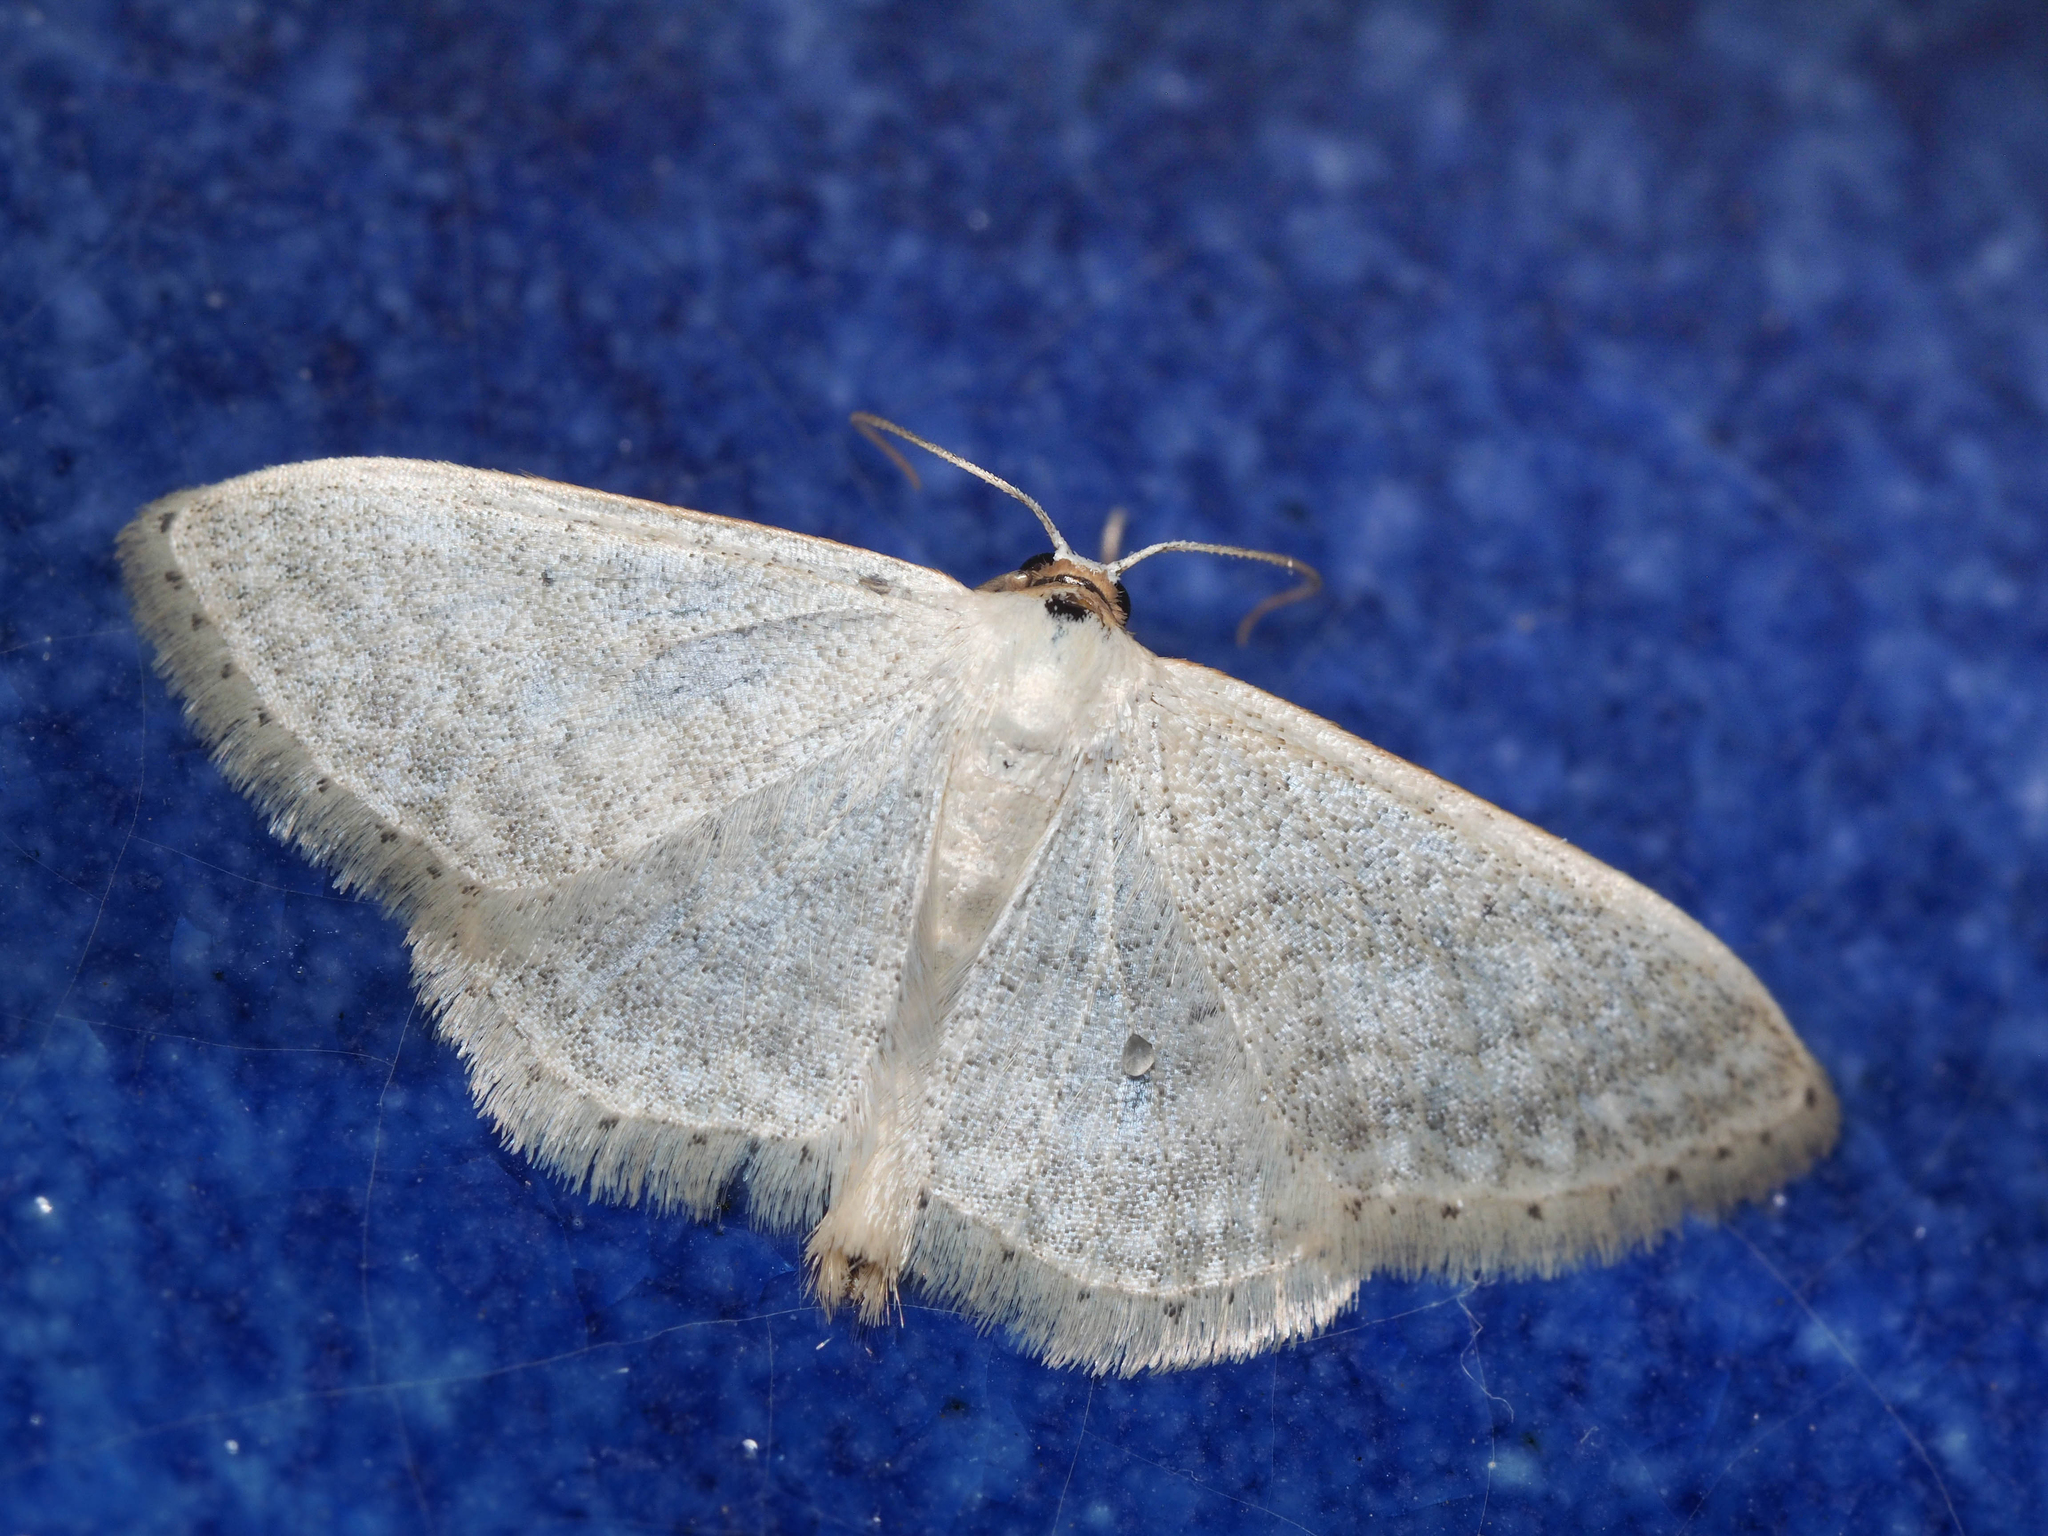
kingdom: Animalia
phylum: Arthropoda
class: Insecta
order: Lepidoptera
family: Geometridae
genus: Idaea
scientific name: Idaea subsericeata
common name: Satin wave
